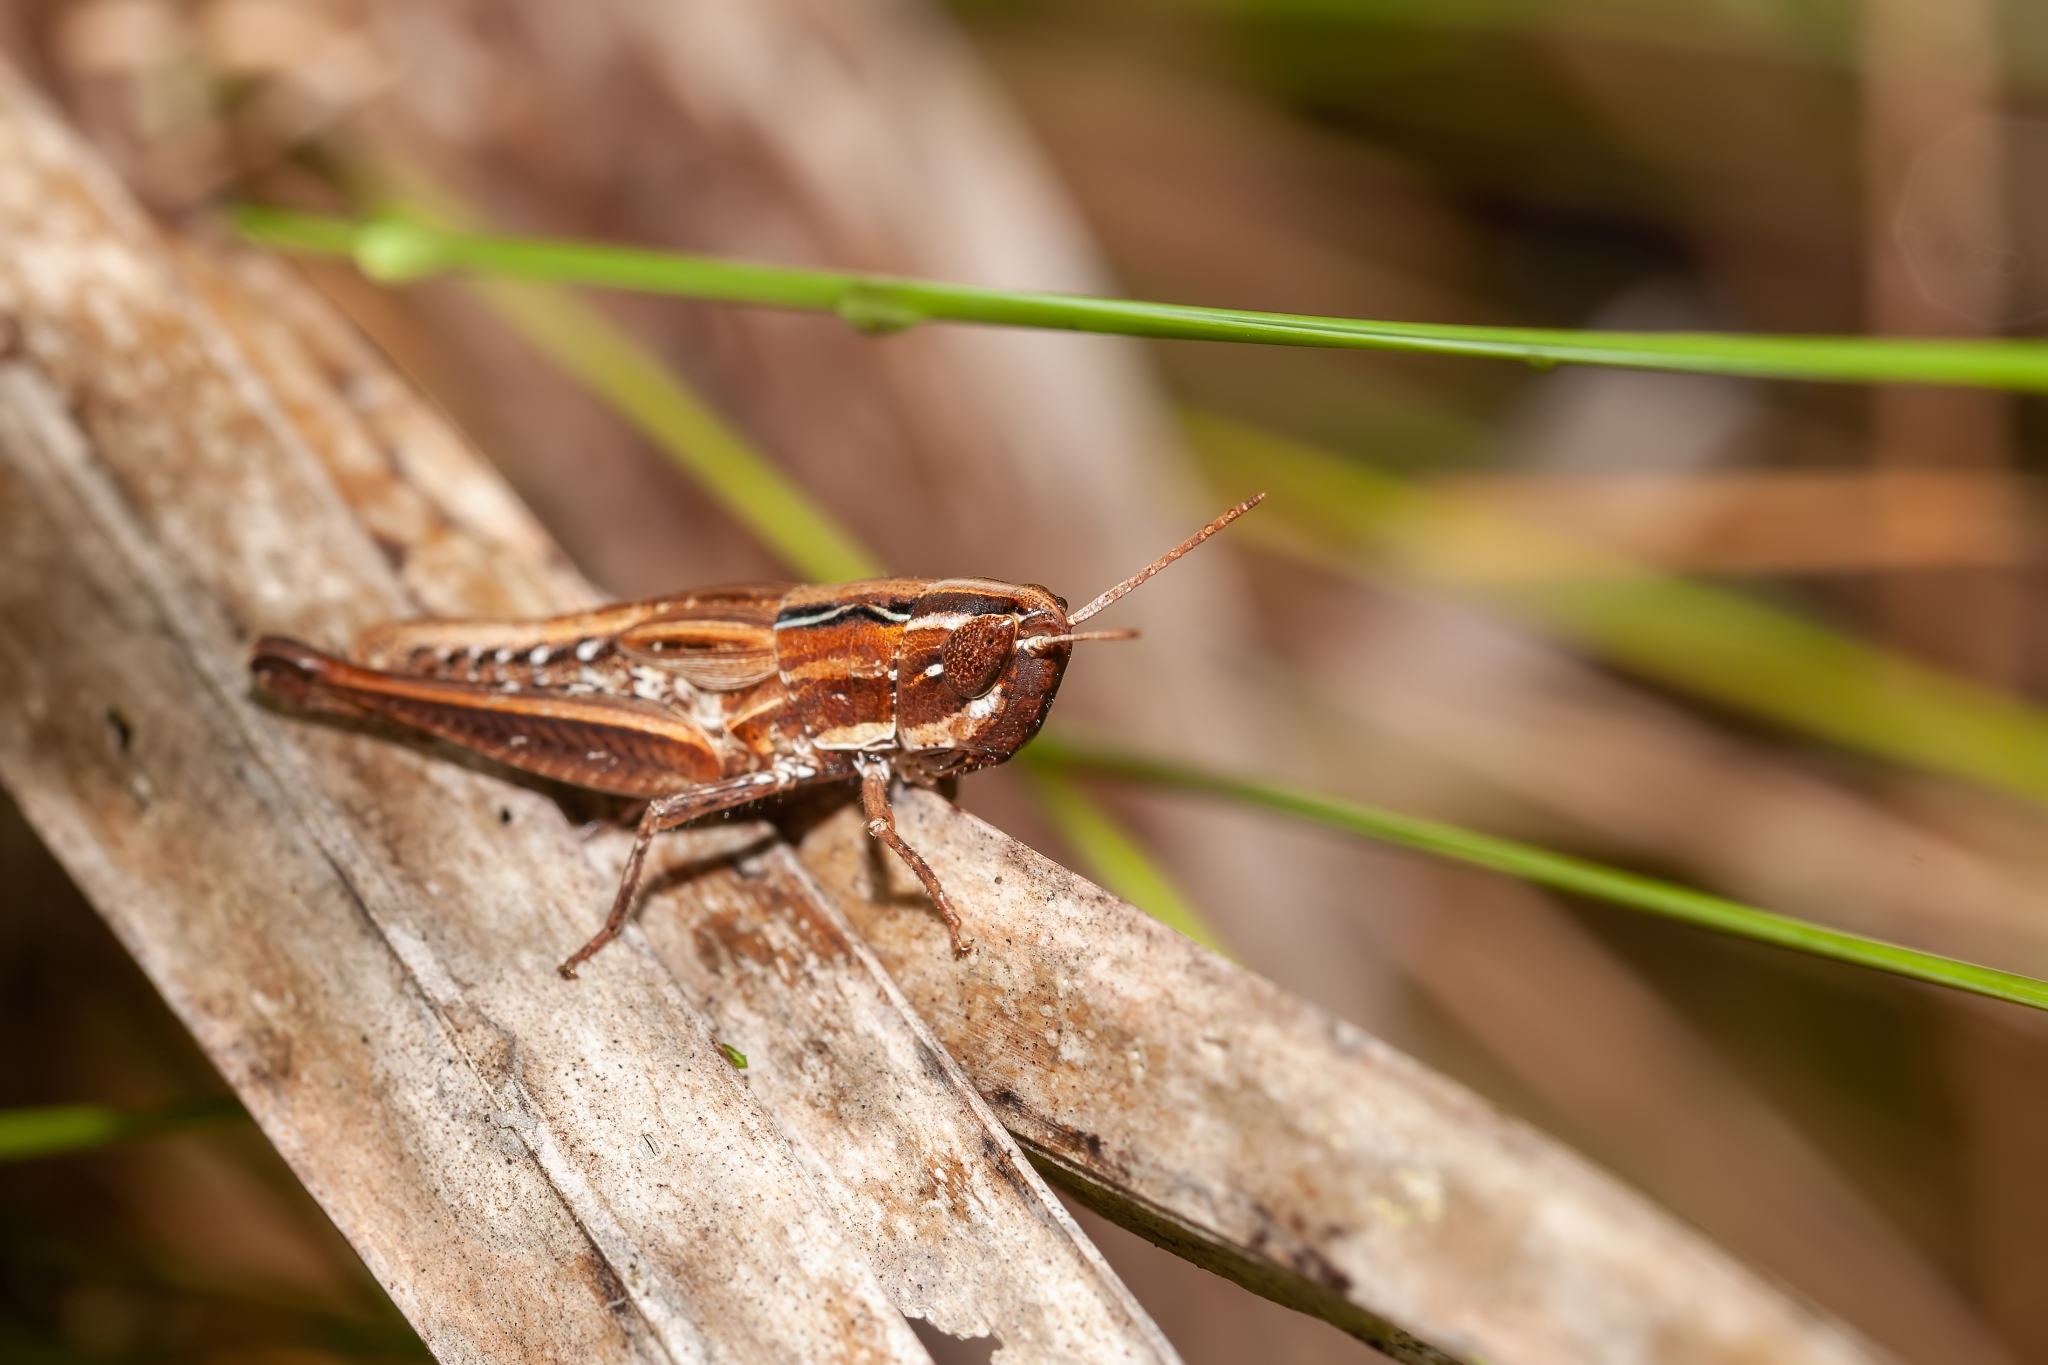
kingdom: Animalia
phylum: Arthropoda
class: Insecta
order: Orthoptera
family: Acrididae
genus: Eritettix
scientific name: Eritettix obscurus
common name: Obscure slant-faced grasshopper
